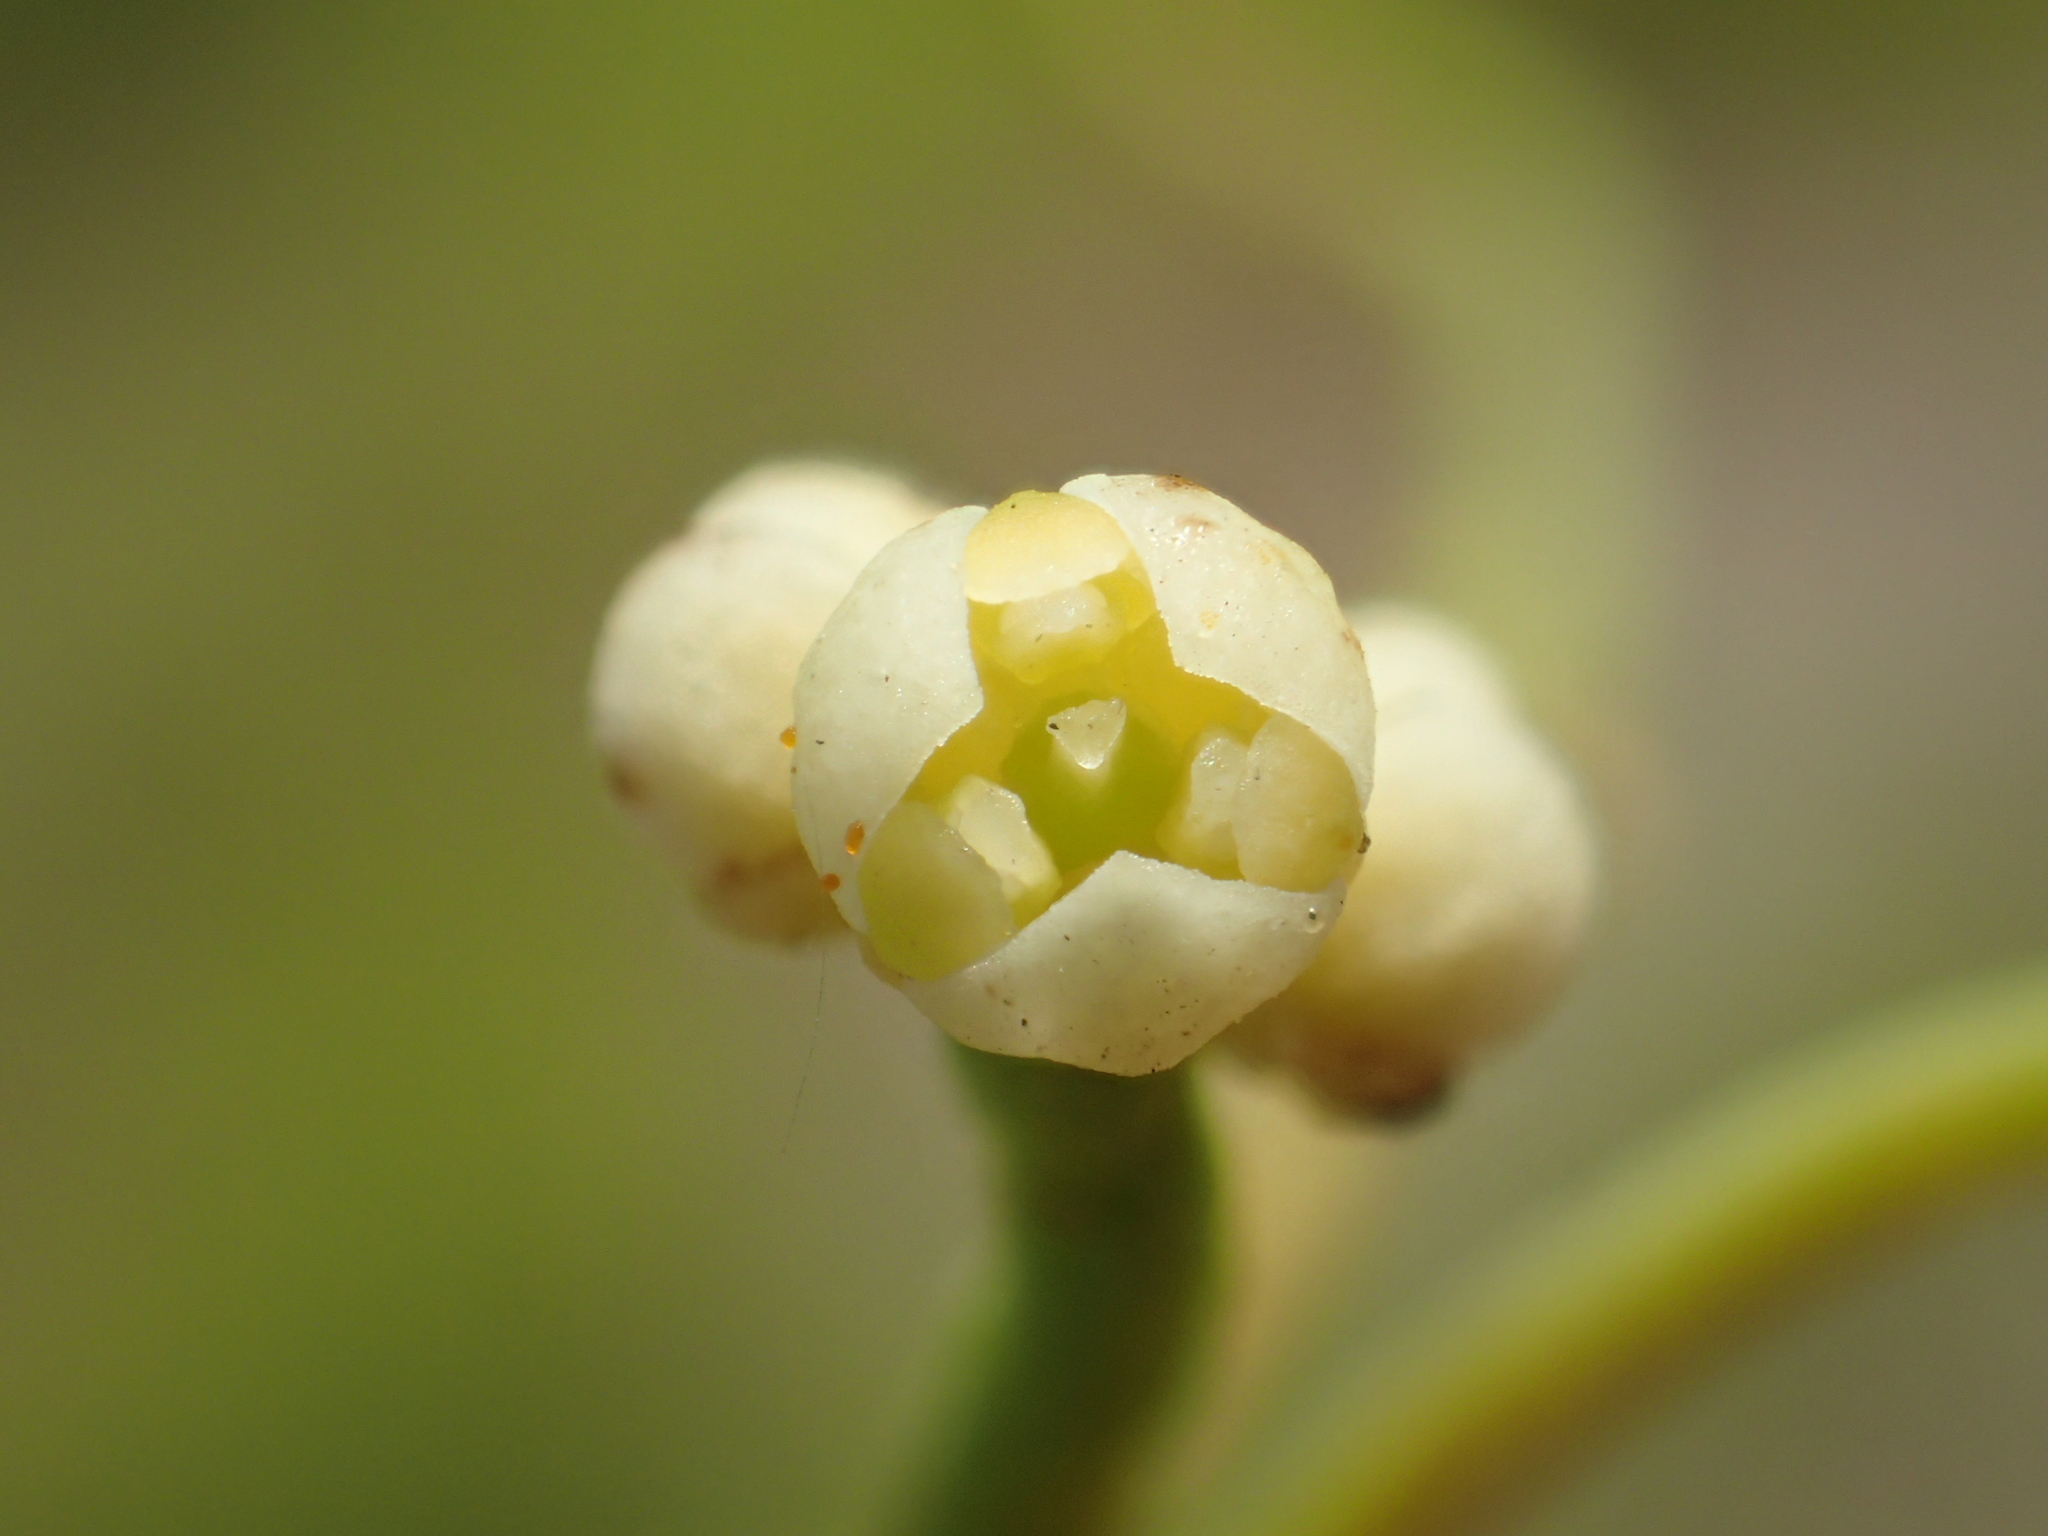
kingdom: Plantae
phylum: Tracheophyta
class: Magnoliopsida
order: Laurales
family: Lauraceae
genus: Cassytha
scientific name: Cassytha filiformis
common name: Dodder-laurel
